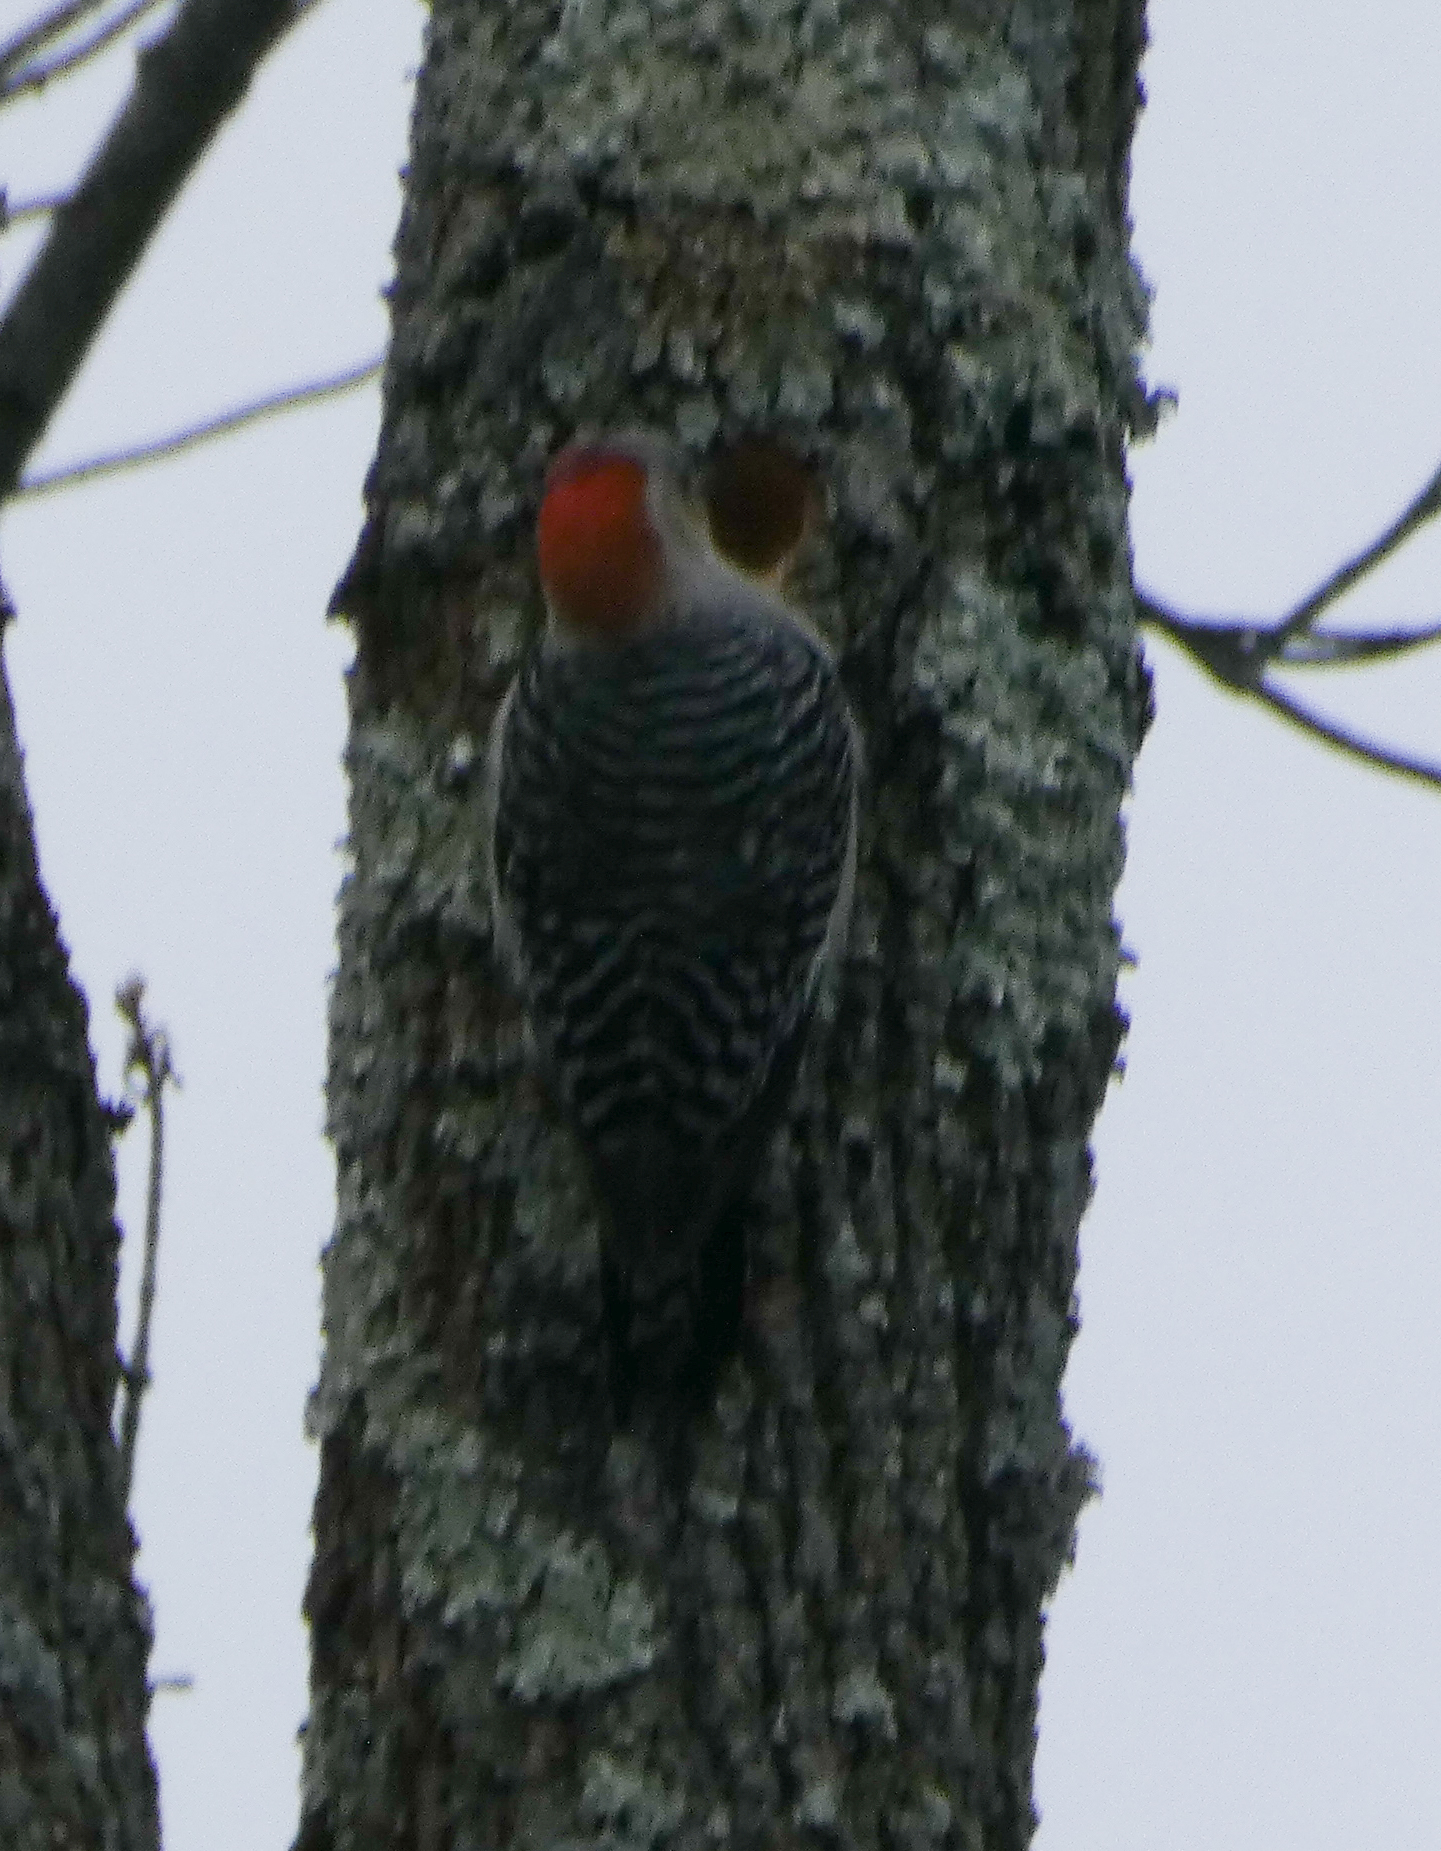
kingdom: Animalia
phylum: Chordata
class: Aves
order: Piciformes
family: Picidae
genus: Melanerpes
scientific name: Melanerpes carolinus
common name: Red-bellied woodpecker
